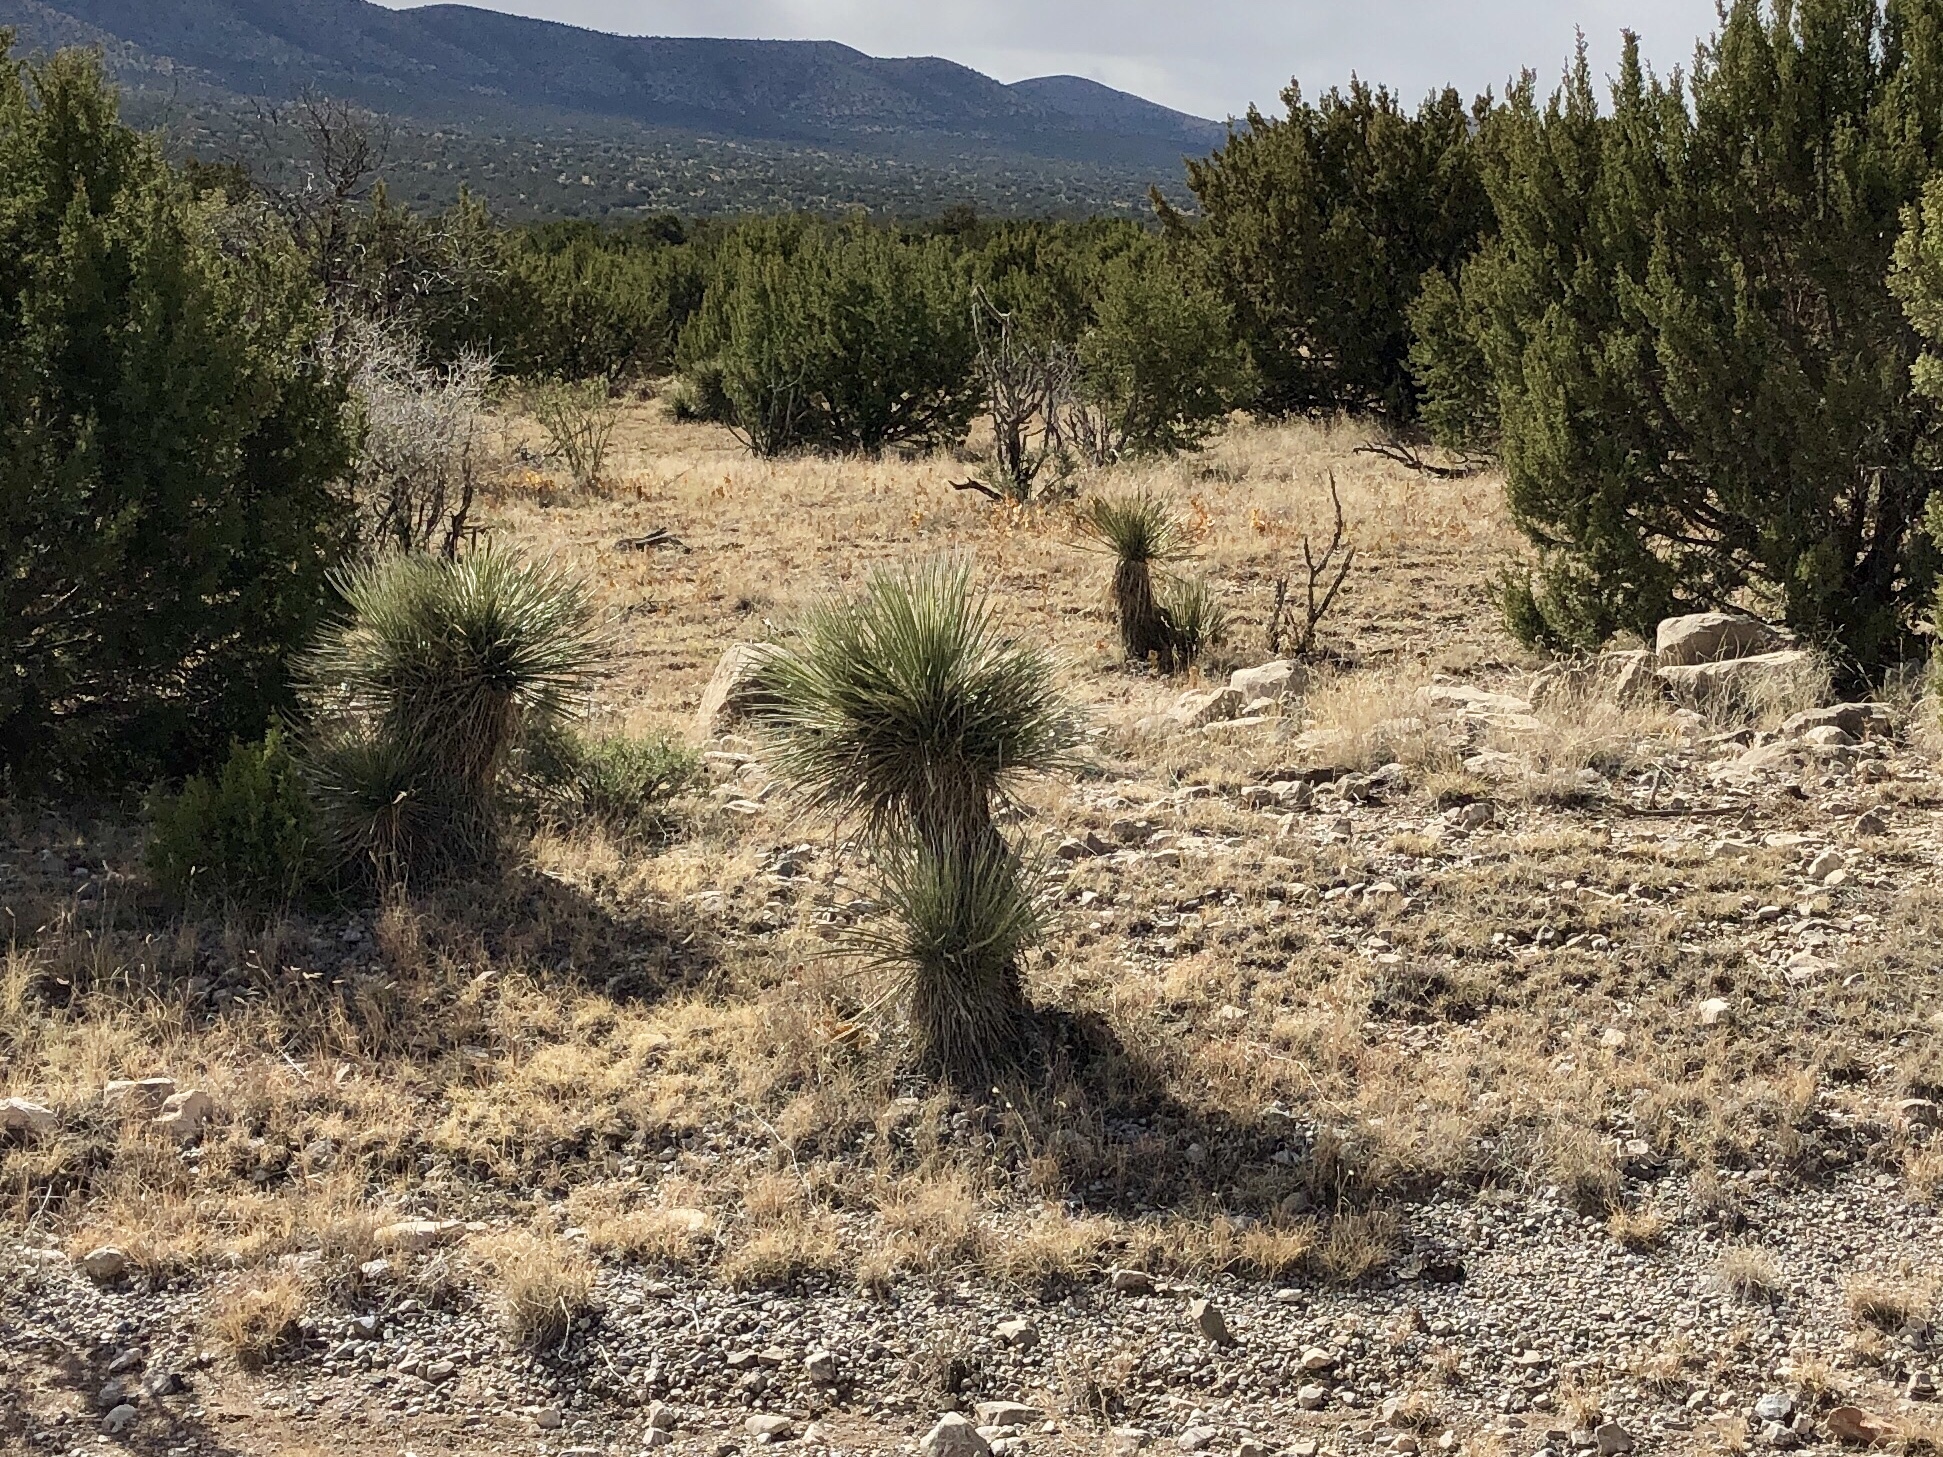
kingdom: Plantae
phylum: Tracheophyta
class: Liliopsida
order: Asparagales
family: Asparagaceae
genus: Yucca
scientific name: Yucca elata
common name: Palmella
